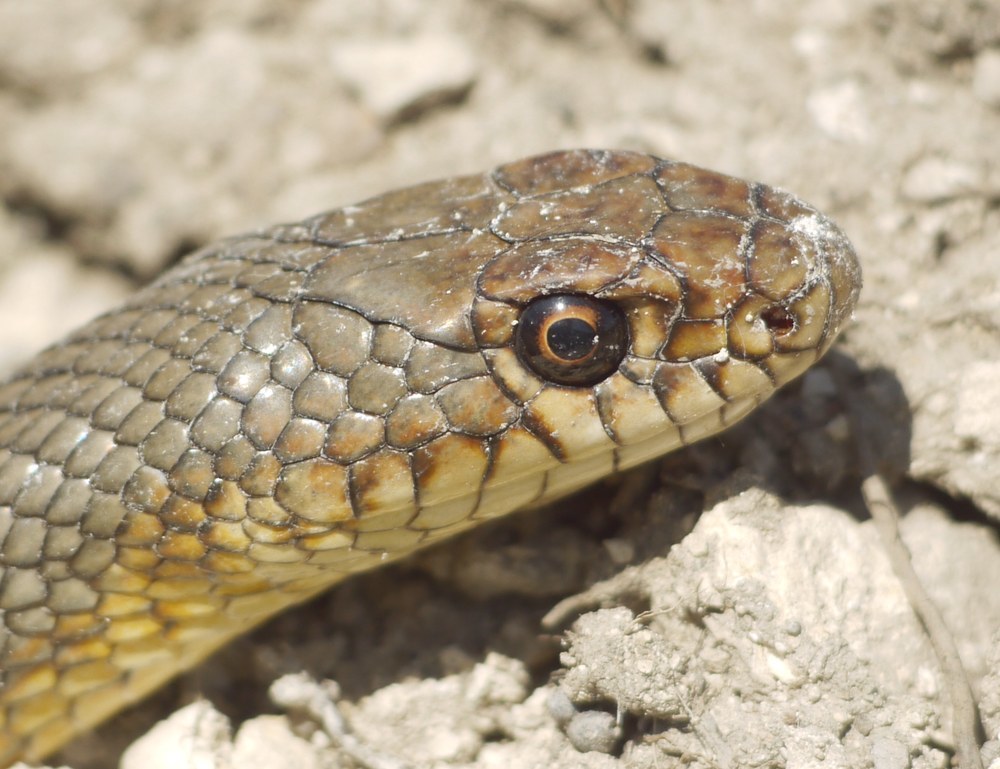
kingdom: Animalia
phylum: Chordata
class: Squamata
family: Colubridae
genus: Dolichophis
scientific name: Dolichophis caspius
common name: Large whip snake
